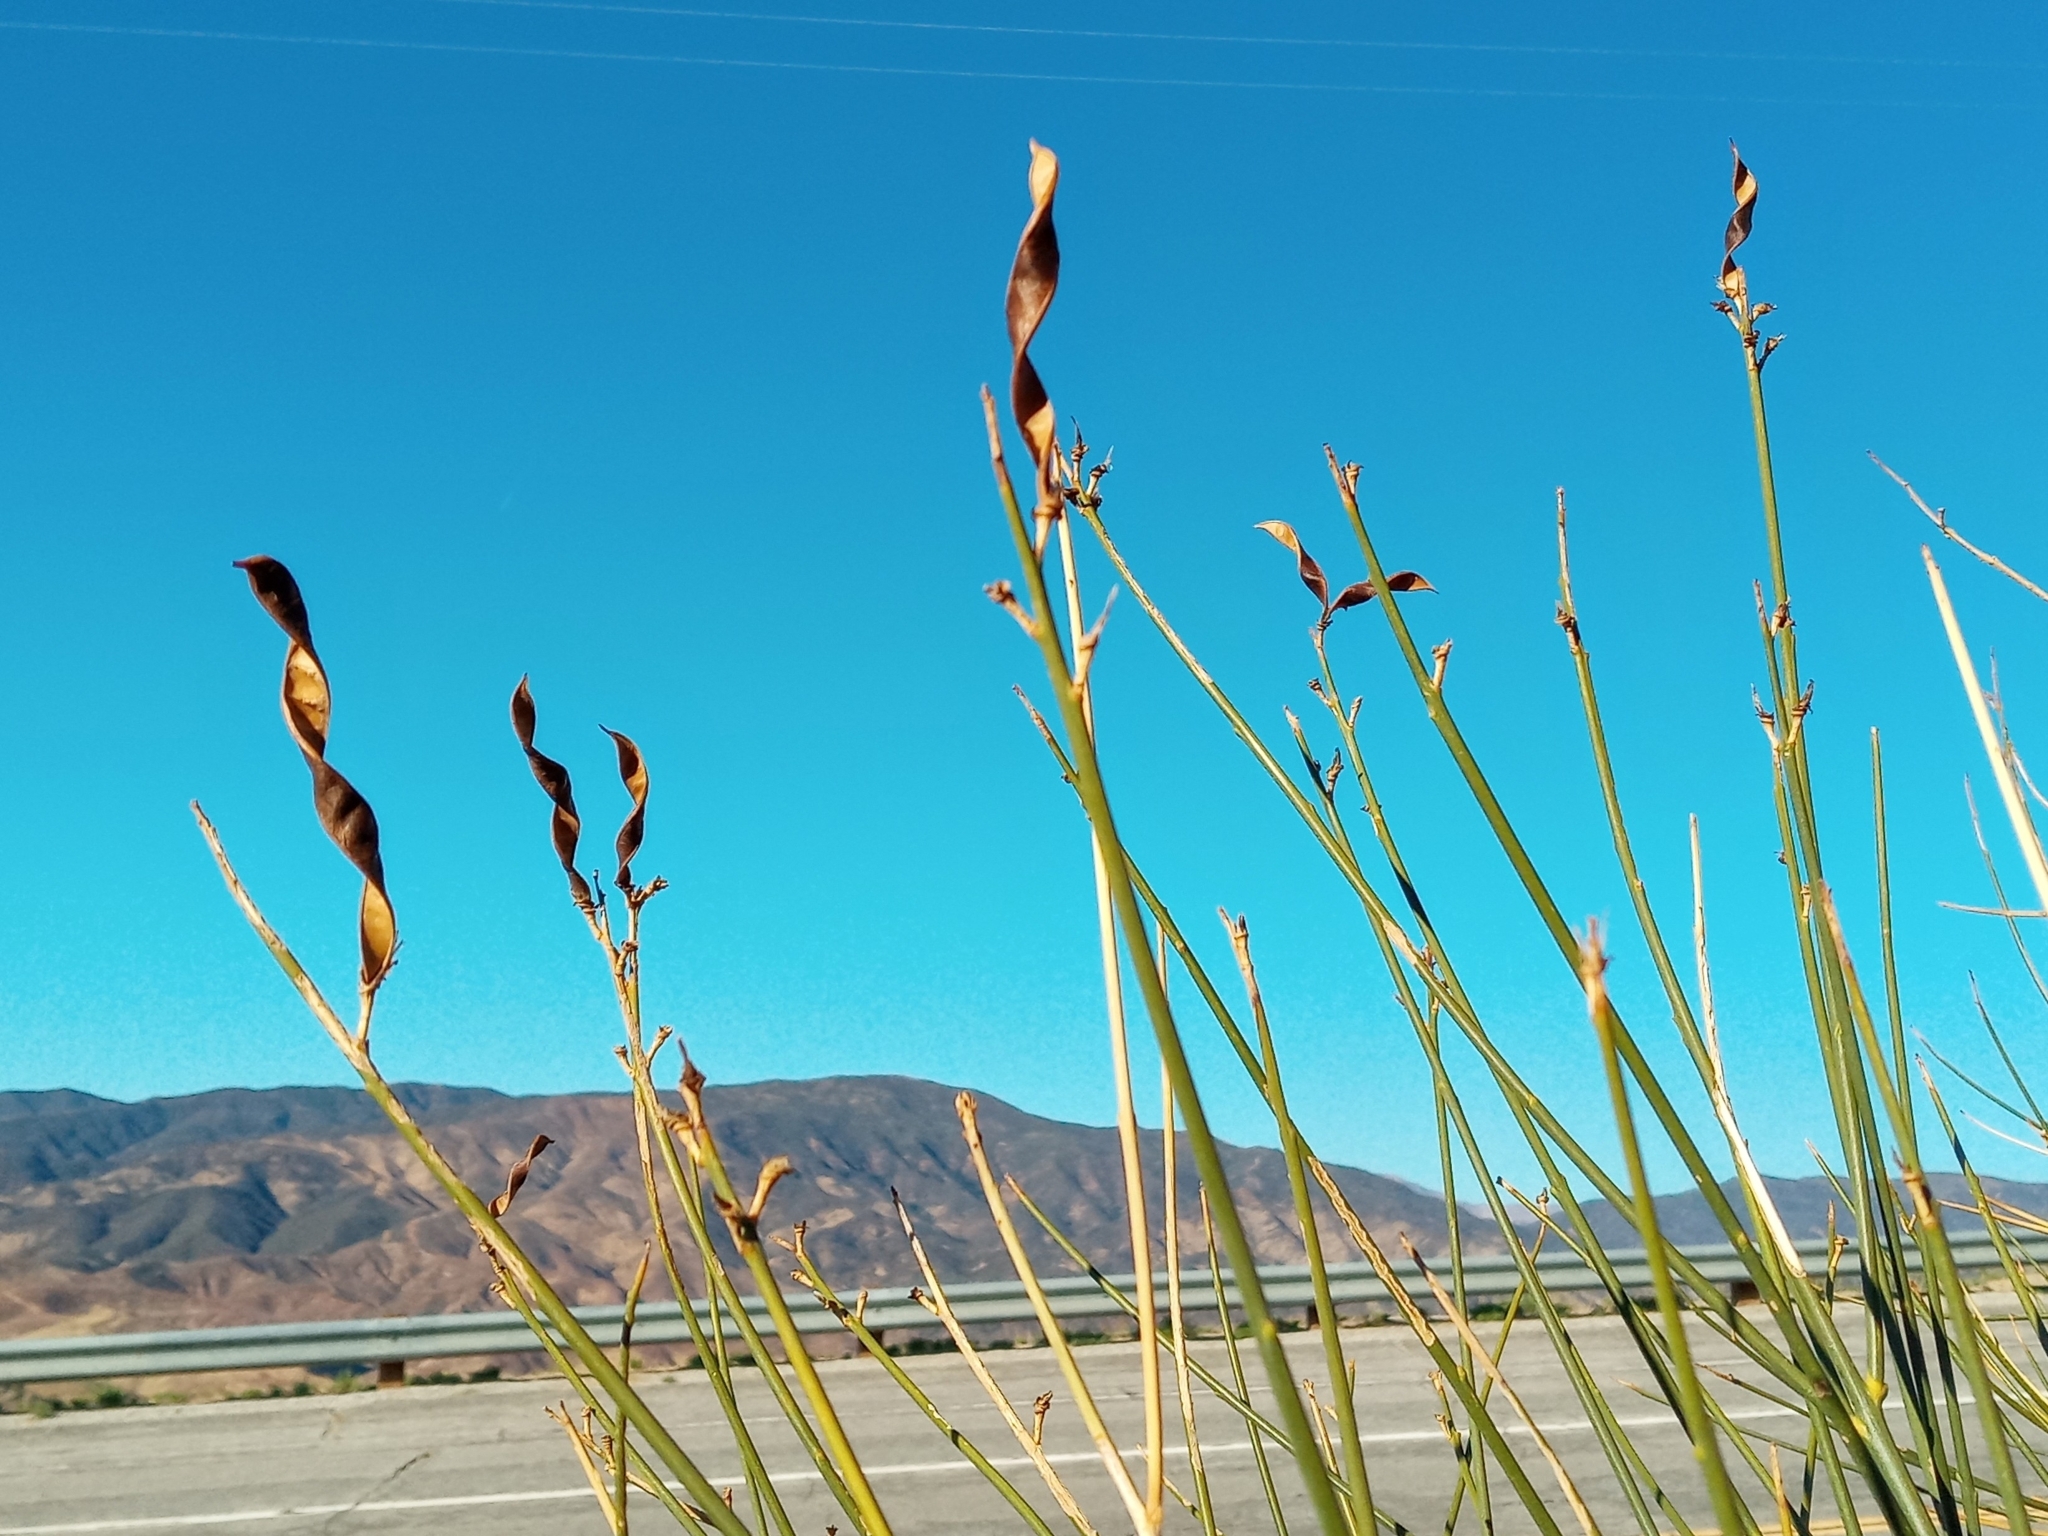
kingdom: Plantae
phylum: Tracheophyta
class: Magnoliopsida
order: Fabales
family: Fabaceae
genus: Spartium
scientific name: Spartium junceum
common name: Spanish broom
